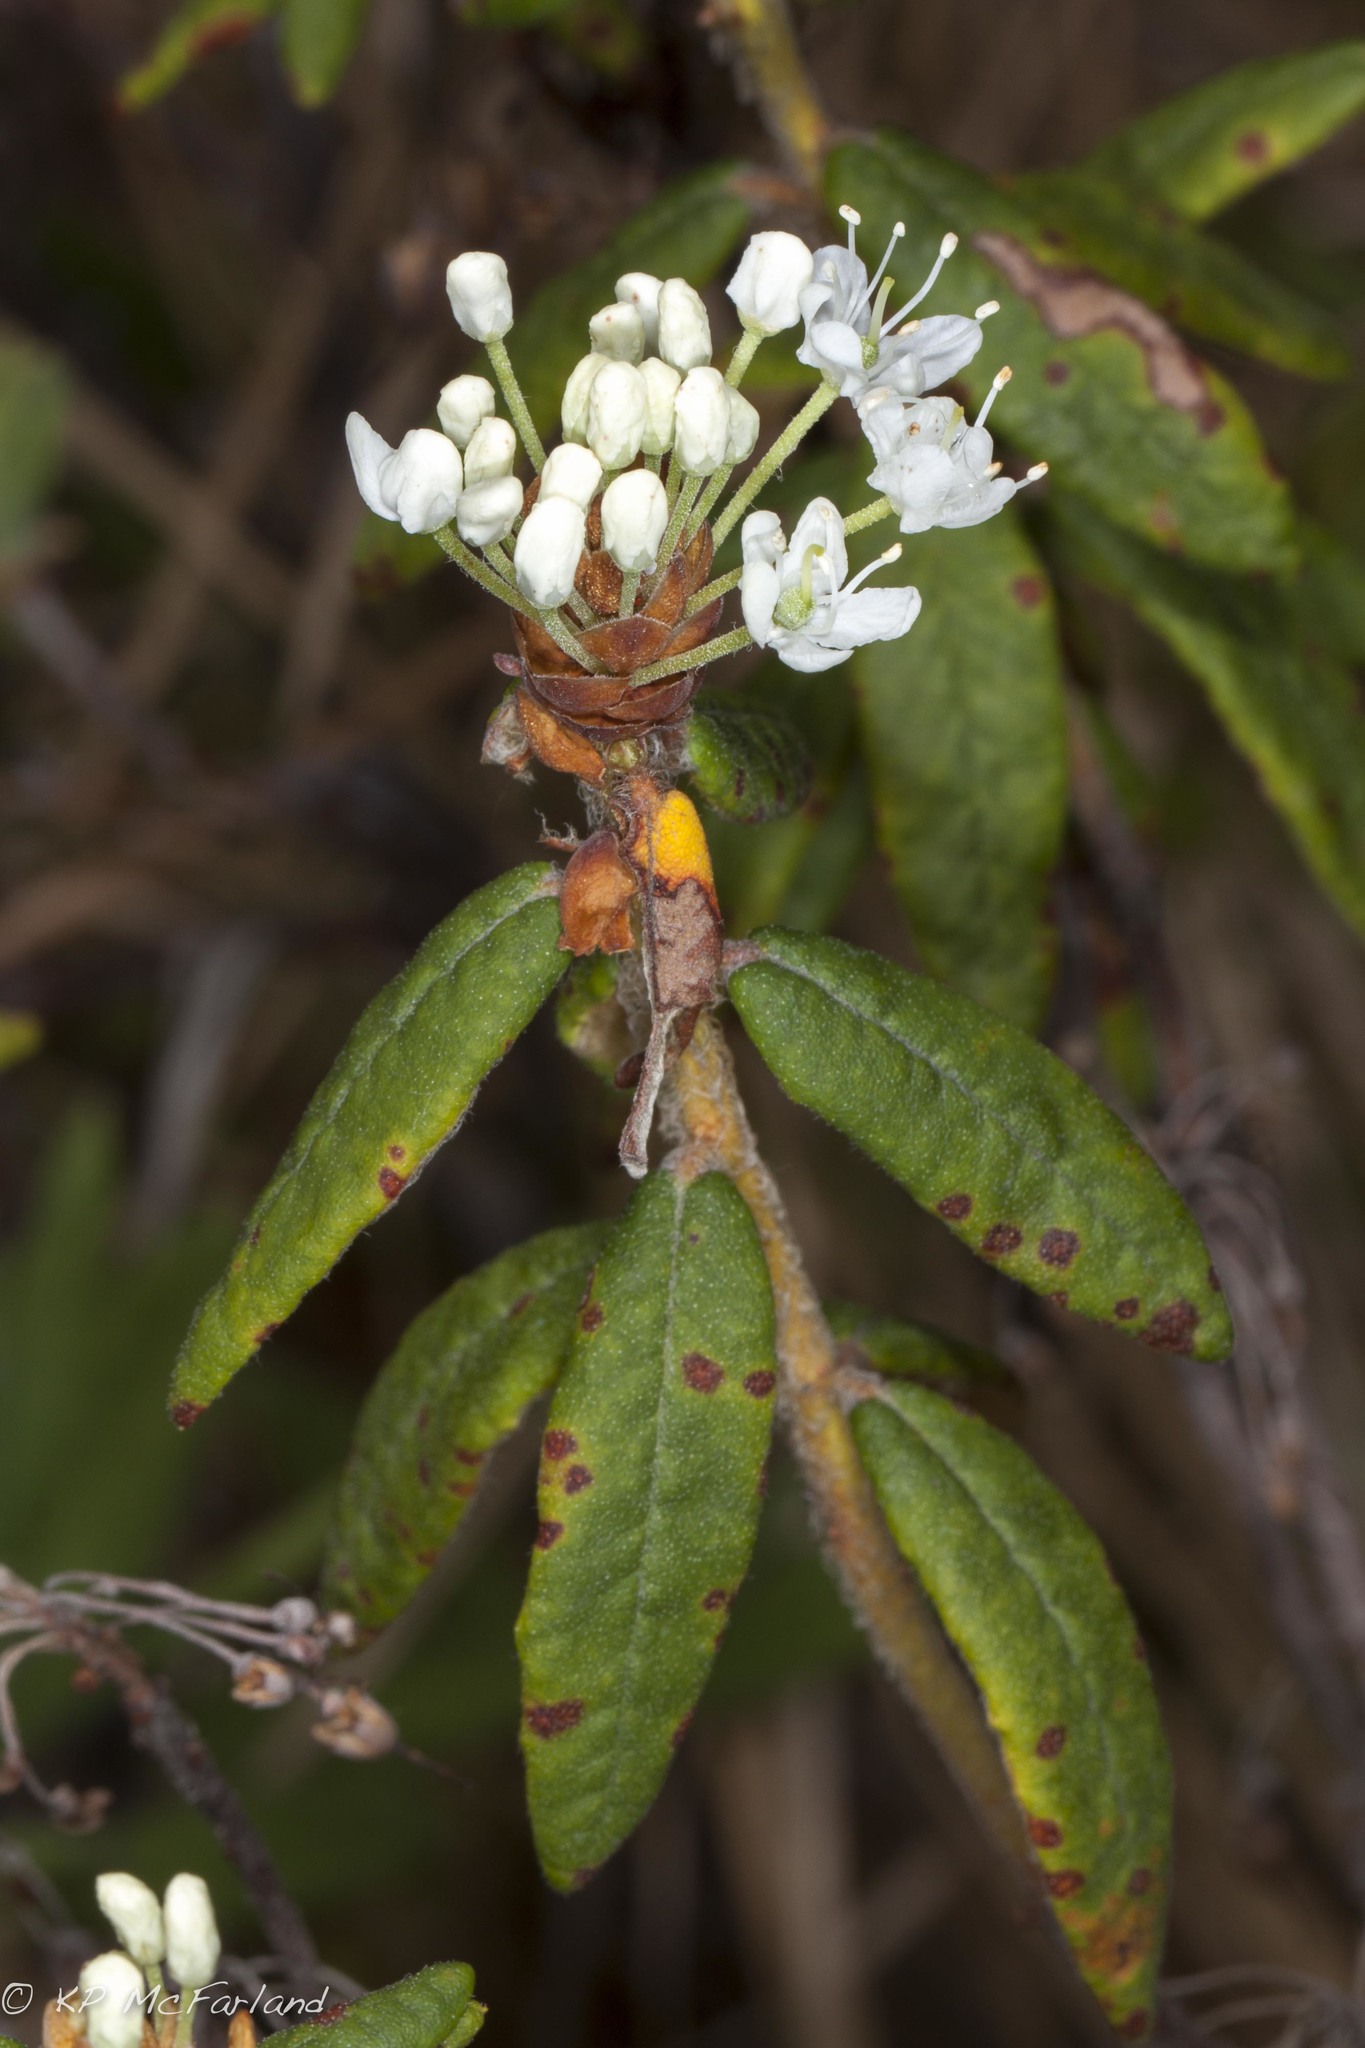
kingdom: Plantae
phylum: Tracheophyta
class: Magnoliopsida
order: Ericales
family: Ericaceae
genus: Rhododendron
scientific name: Rhododendron groenlandicum
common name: Bog labrador tea
